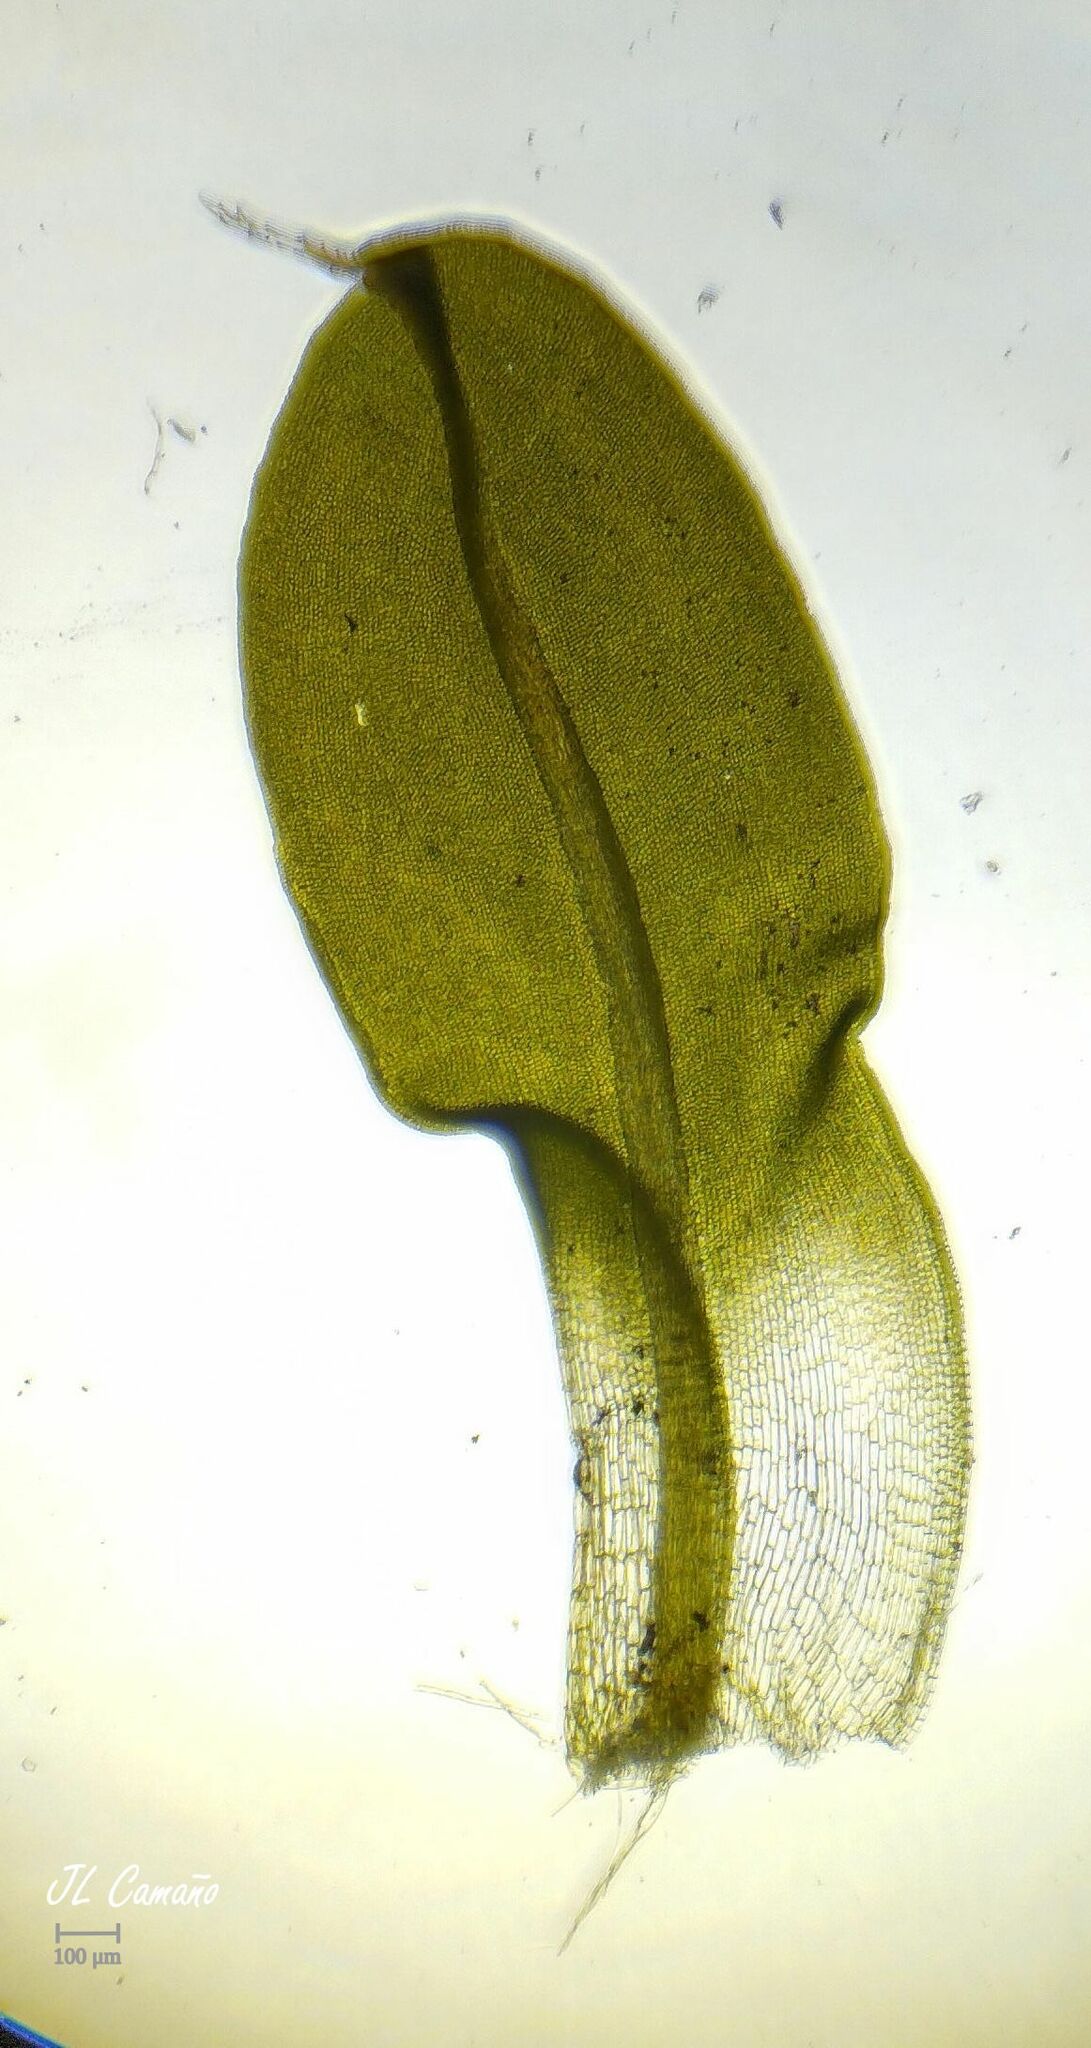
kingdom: Plantae
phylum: Bryophyta
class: Bryopsida
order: Pottiales
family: Pottiaceae
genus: Syntrichia
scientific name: Syntrichia montana
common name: Intermediate screw-moss
